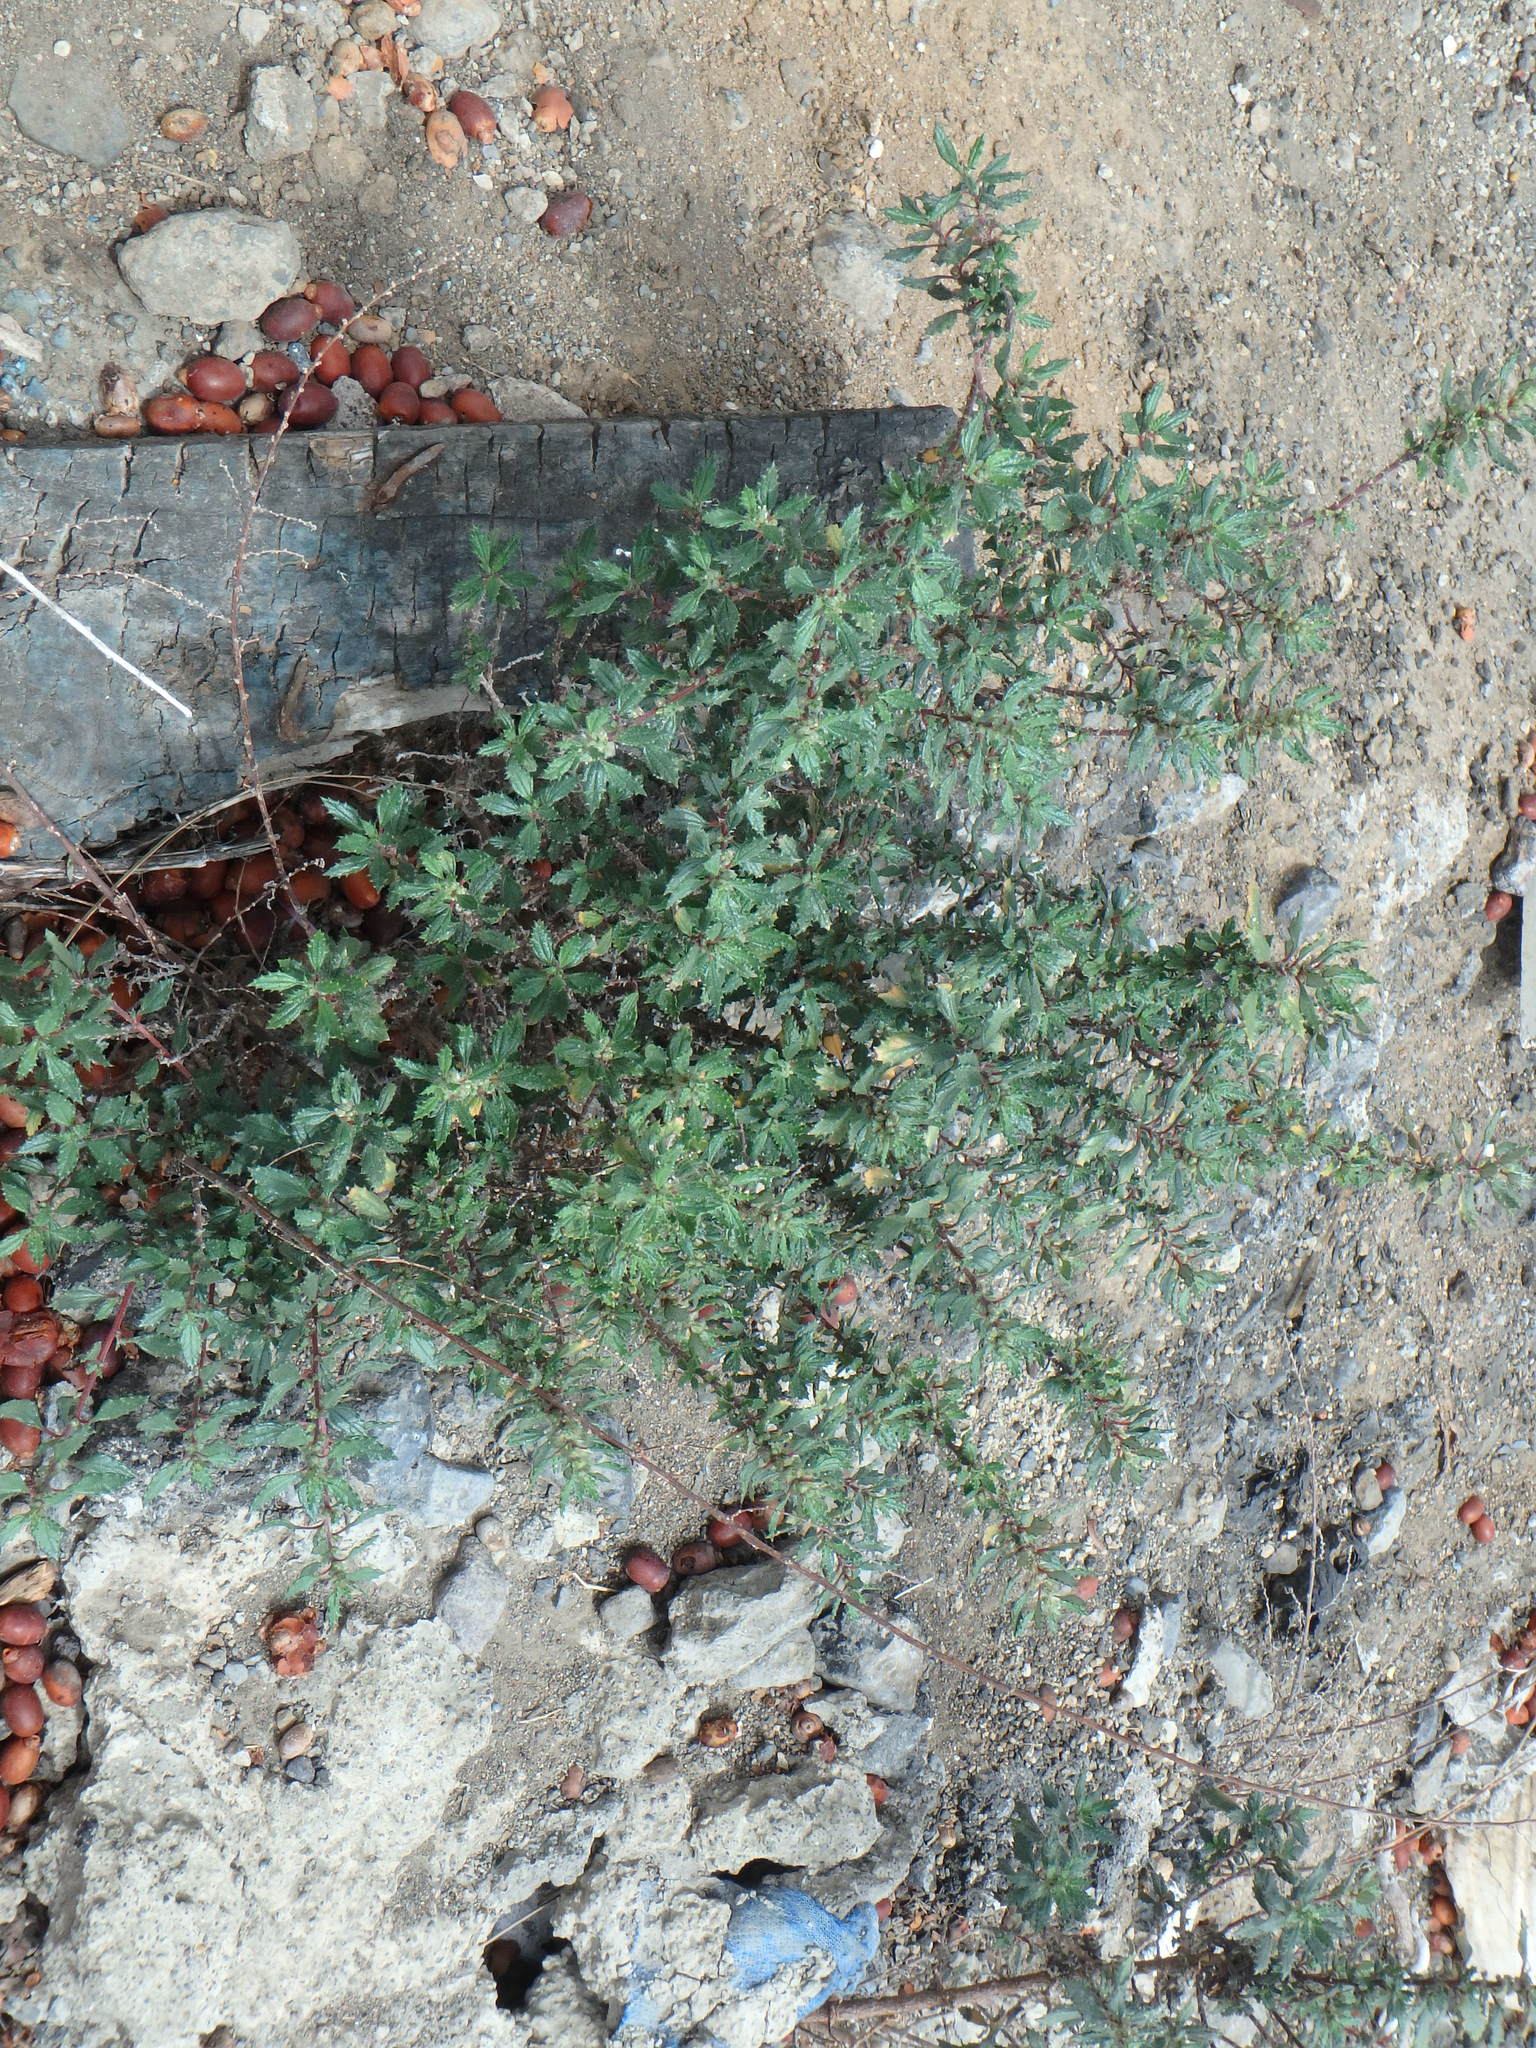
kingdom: Plantae
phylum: Tracheophyta
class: Magnoliopsida
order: Rosales
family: Urticaceae
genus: Forsskaolea
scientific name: Forsskaolea angustifolia
